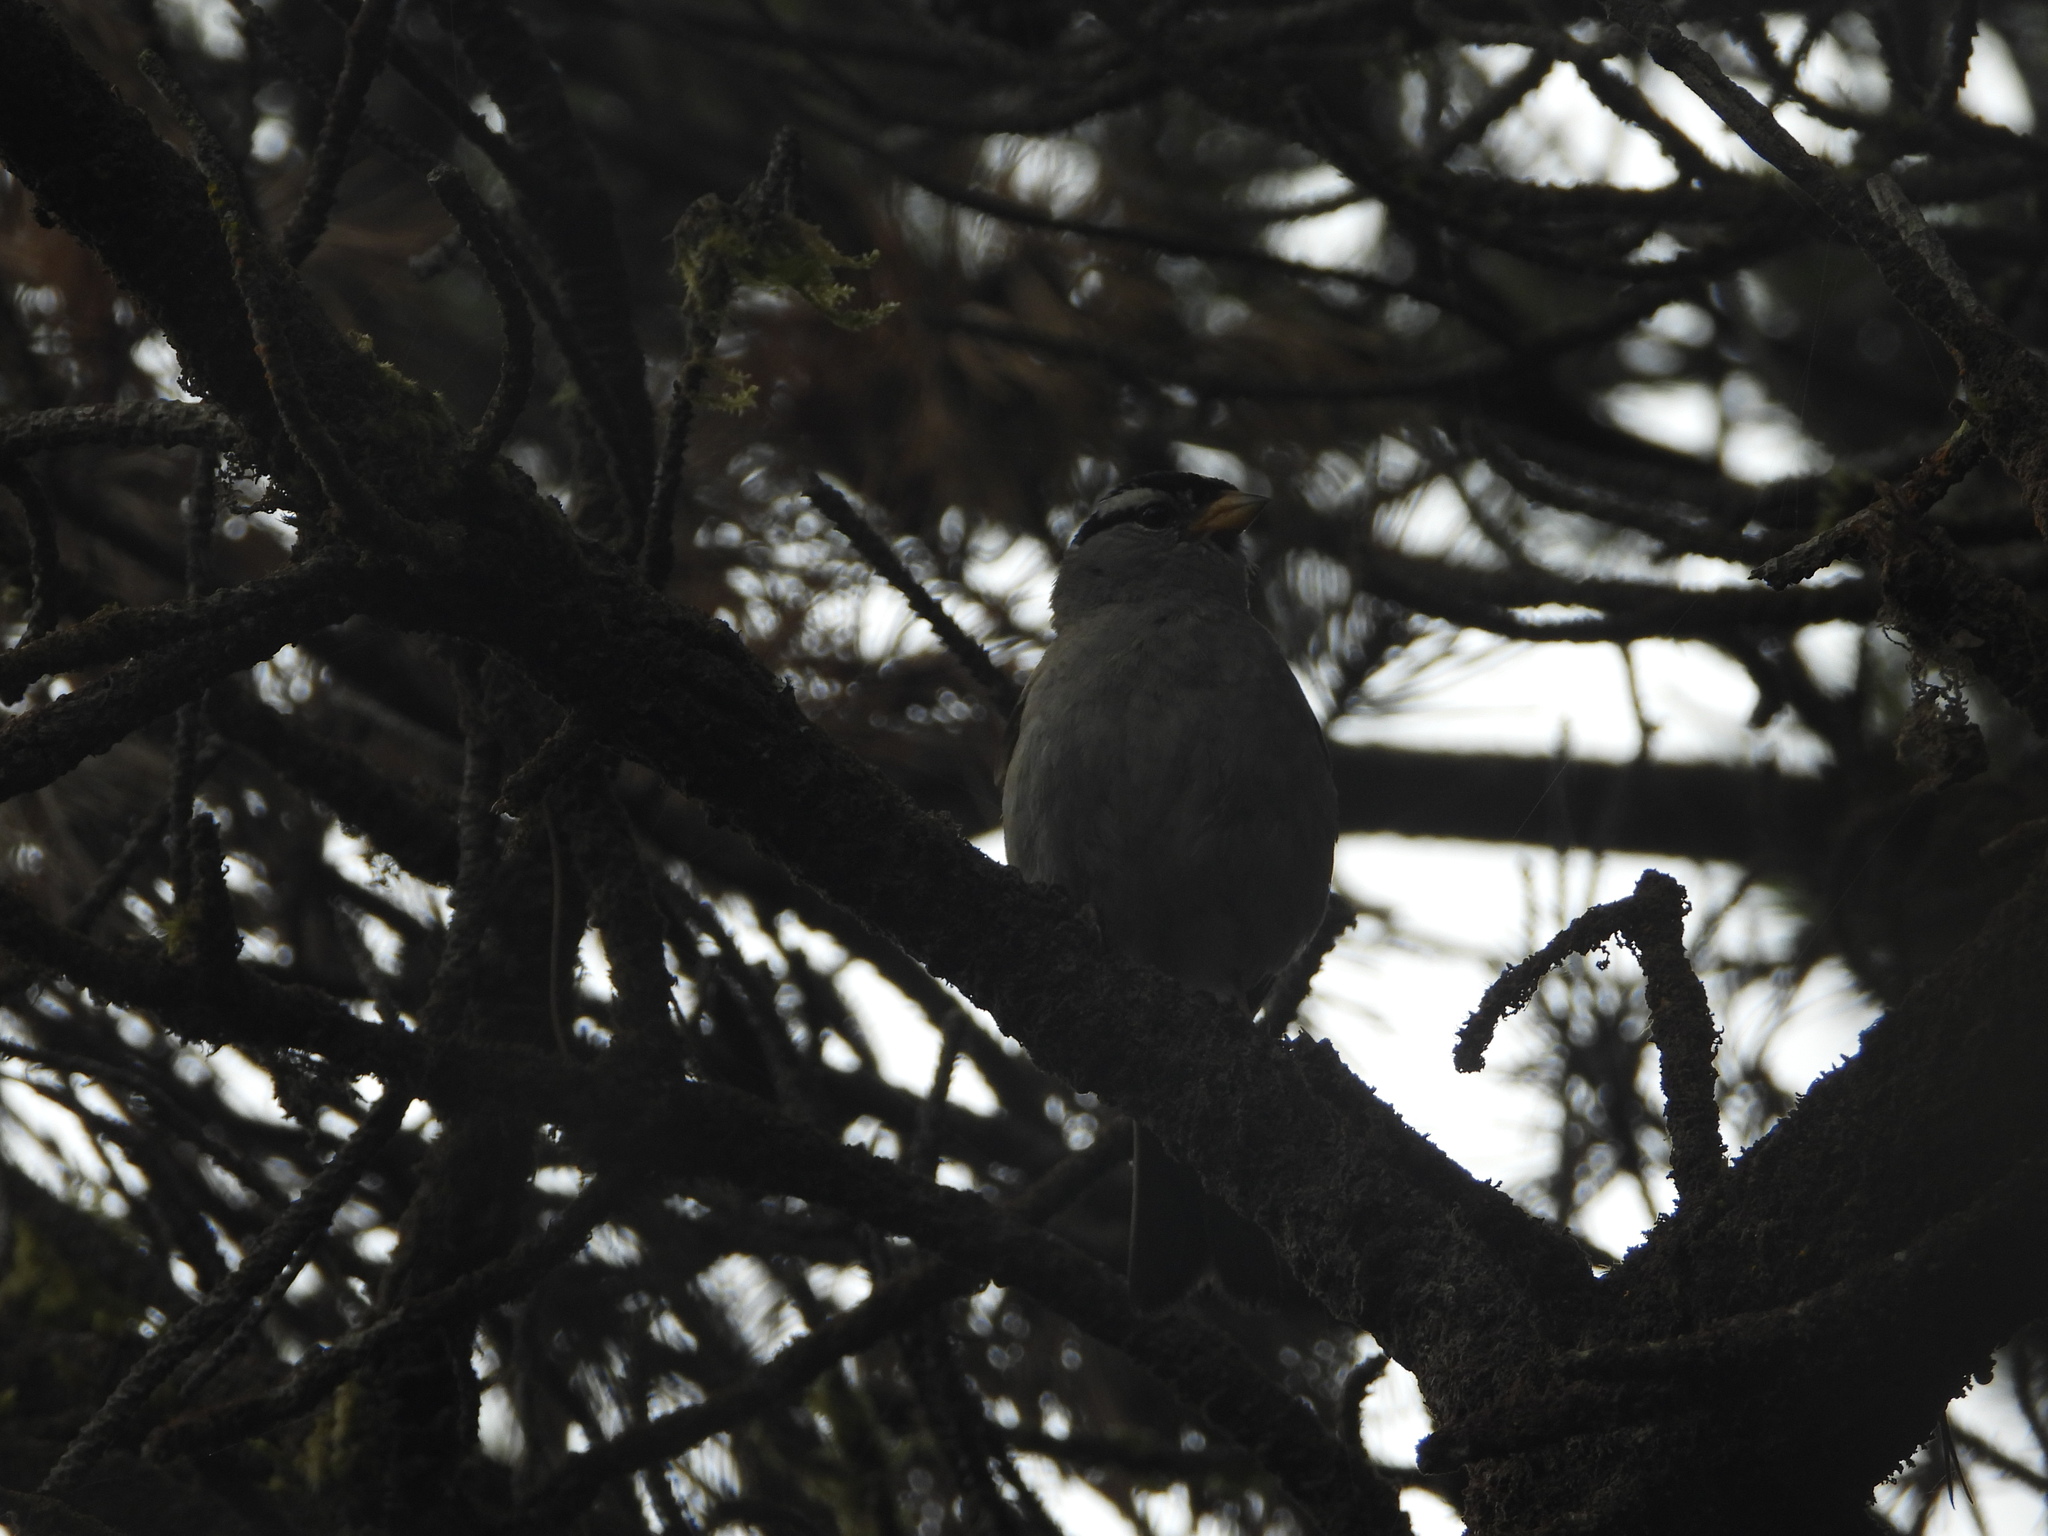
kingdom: Animalia
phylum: Chordata
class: Aves
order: Passeriformes
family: Passerellidae
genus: Zonotrichia
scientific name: Zonotrichia leucophrys
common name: White-crowned sparrow
